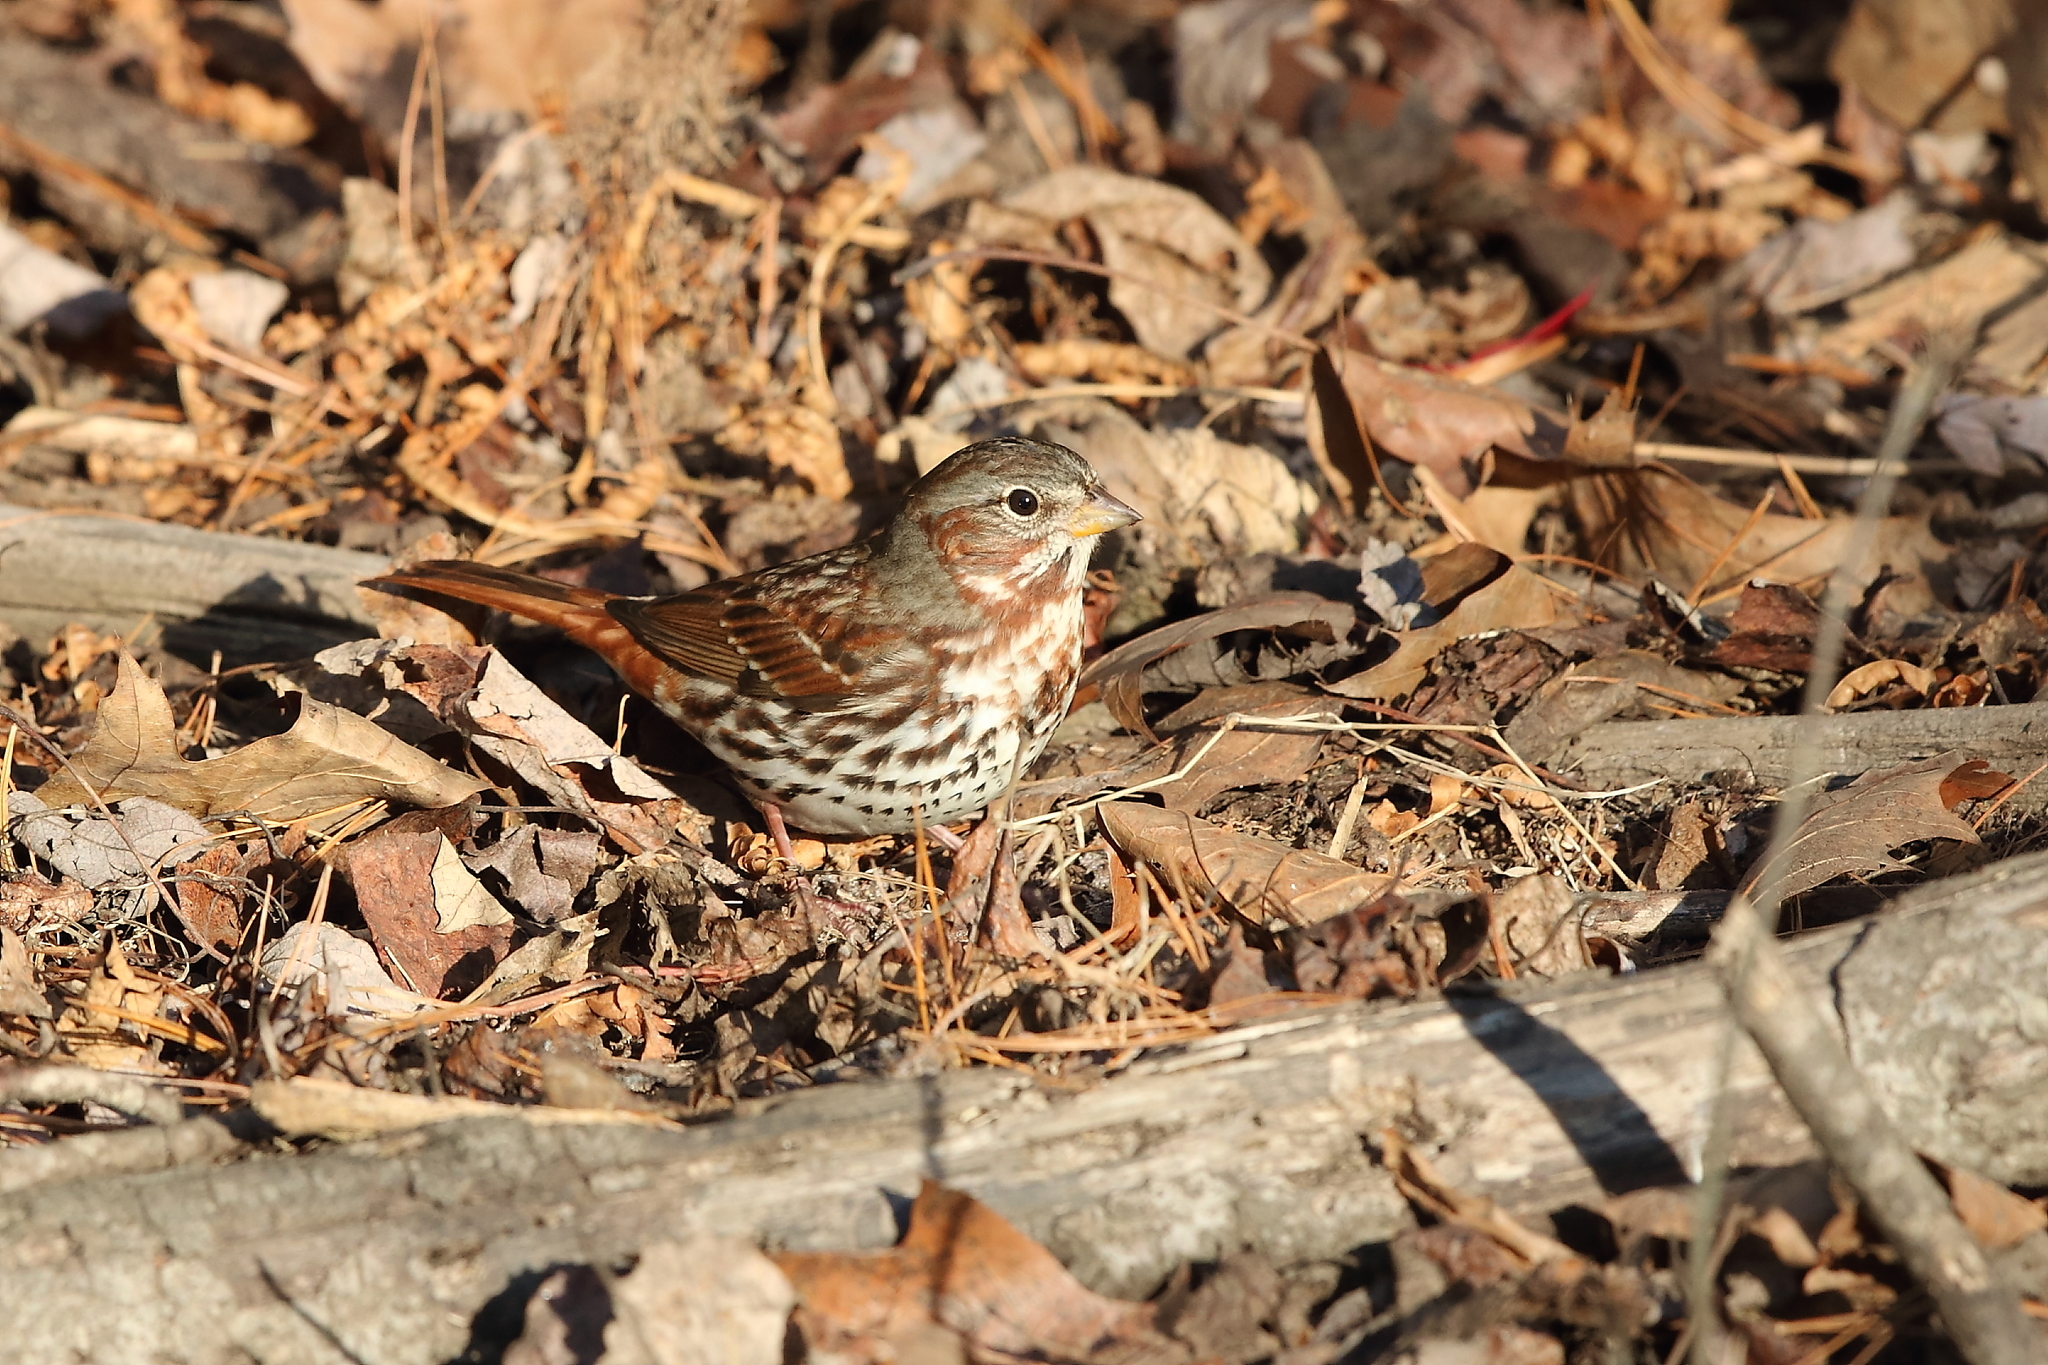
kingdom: Animalia
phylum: Chordata
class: Aves
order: Passeriformes
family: Passerellidae
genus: Passerella
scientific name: Passerella iliaca
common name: Fox sparrow
